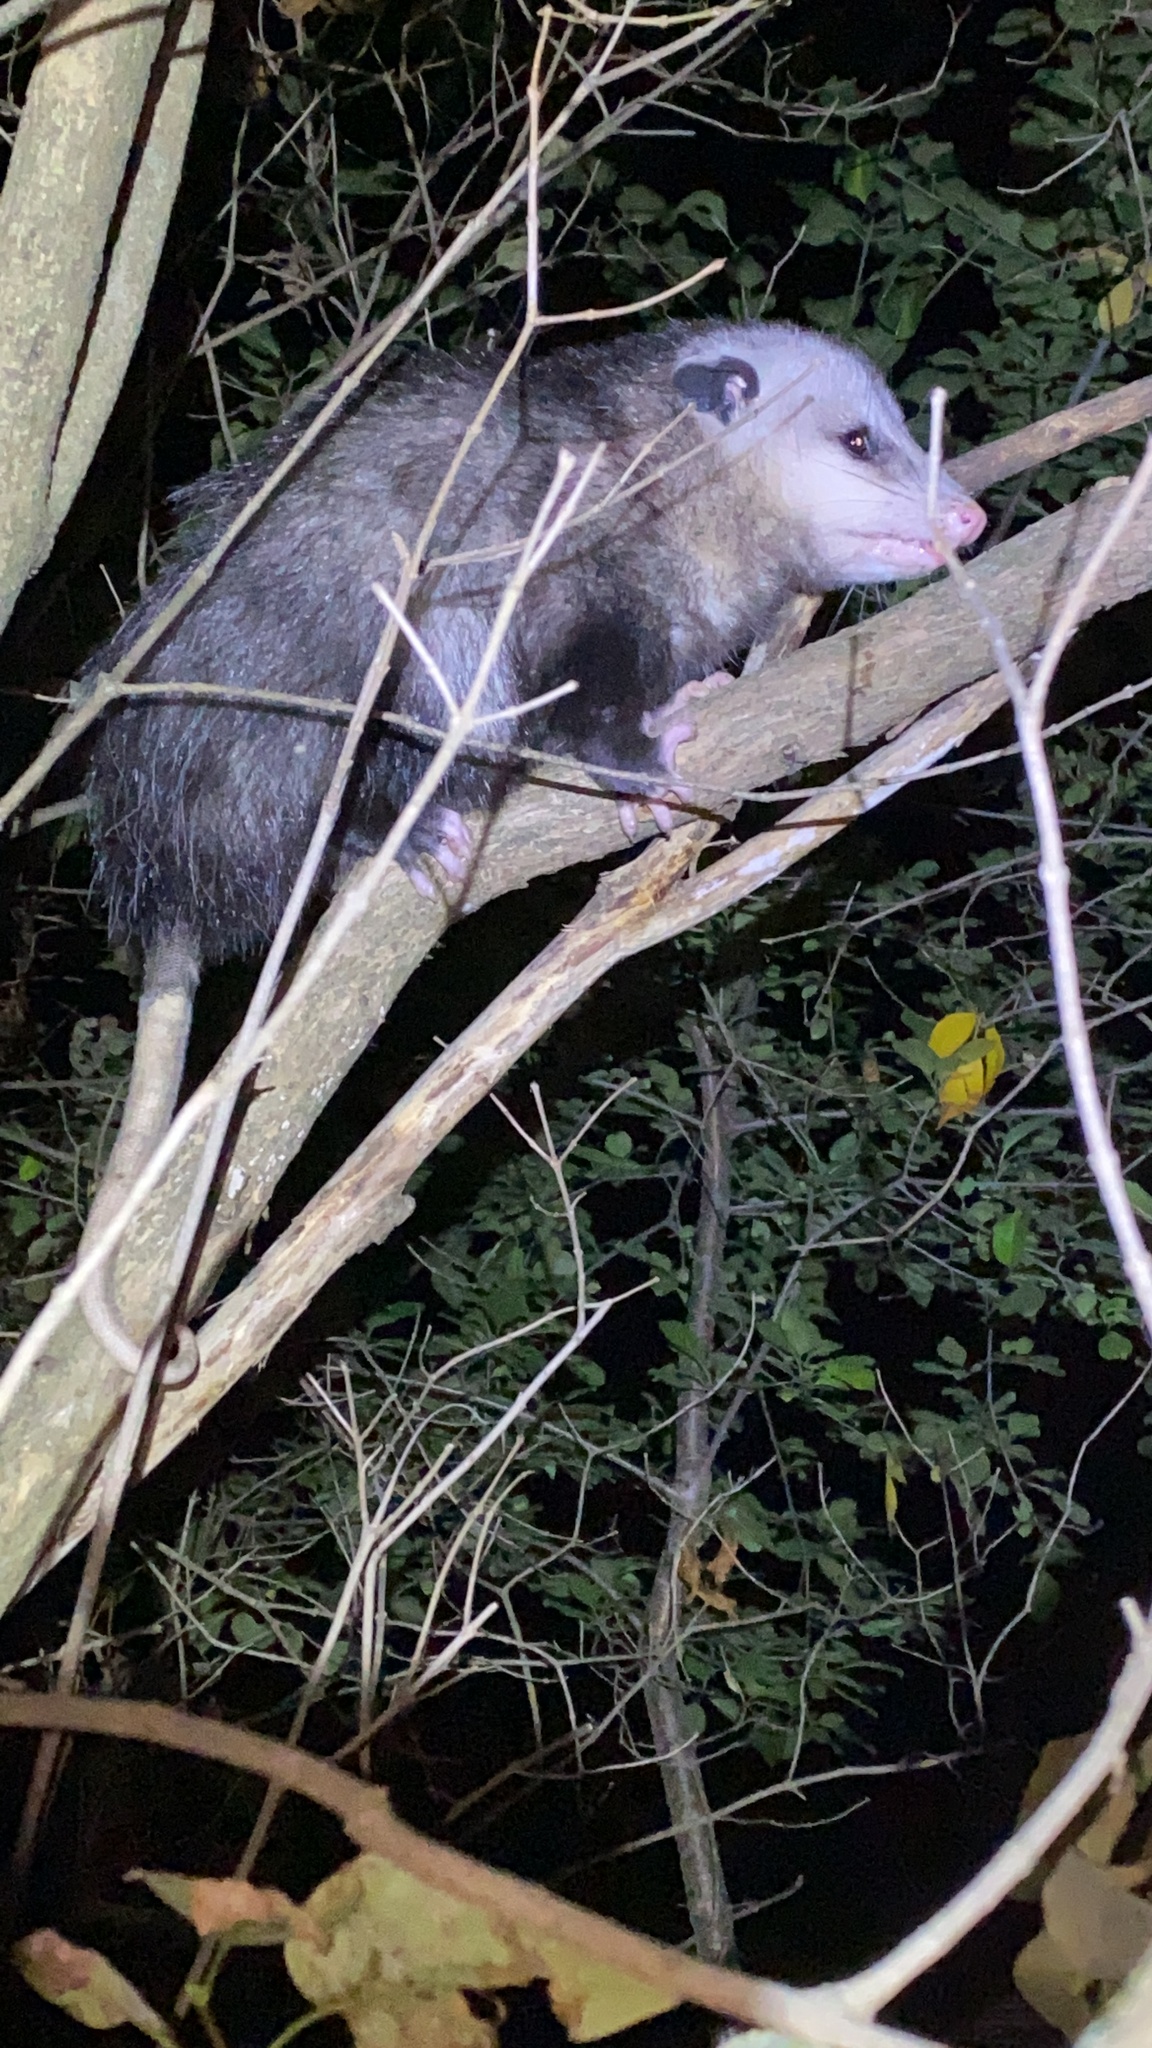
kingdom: Animalia
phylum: Chordata
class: Mammalia
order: Didelphimorphia
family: Didelphidae
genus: Didelphis
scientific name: Didelphis virginiana
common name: Virginia opossum
